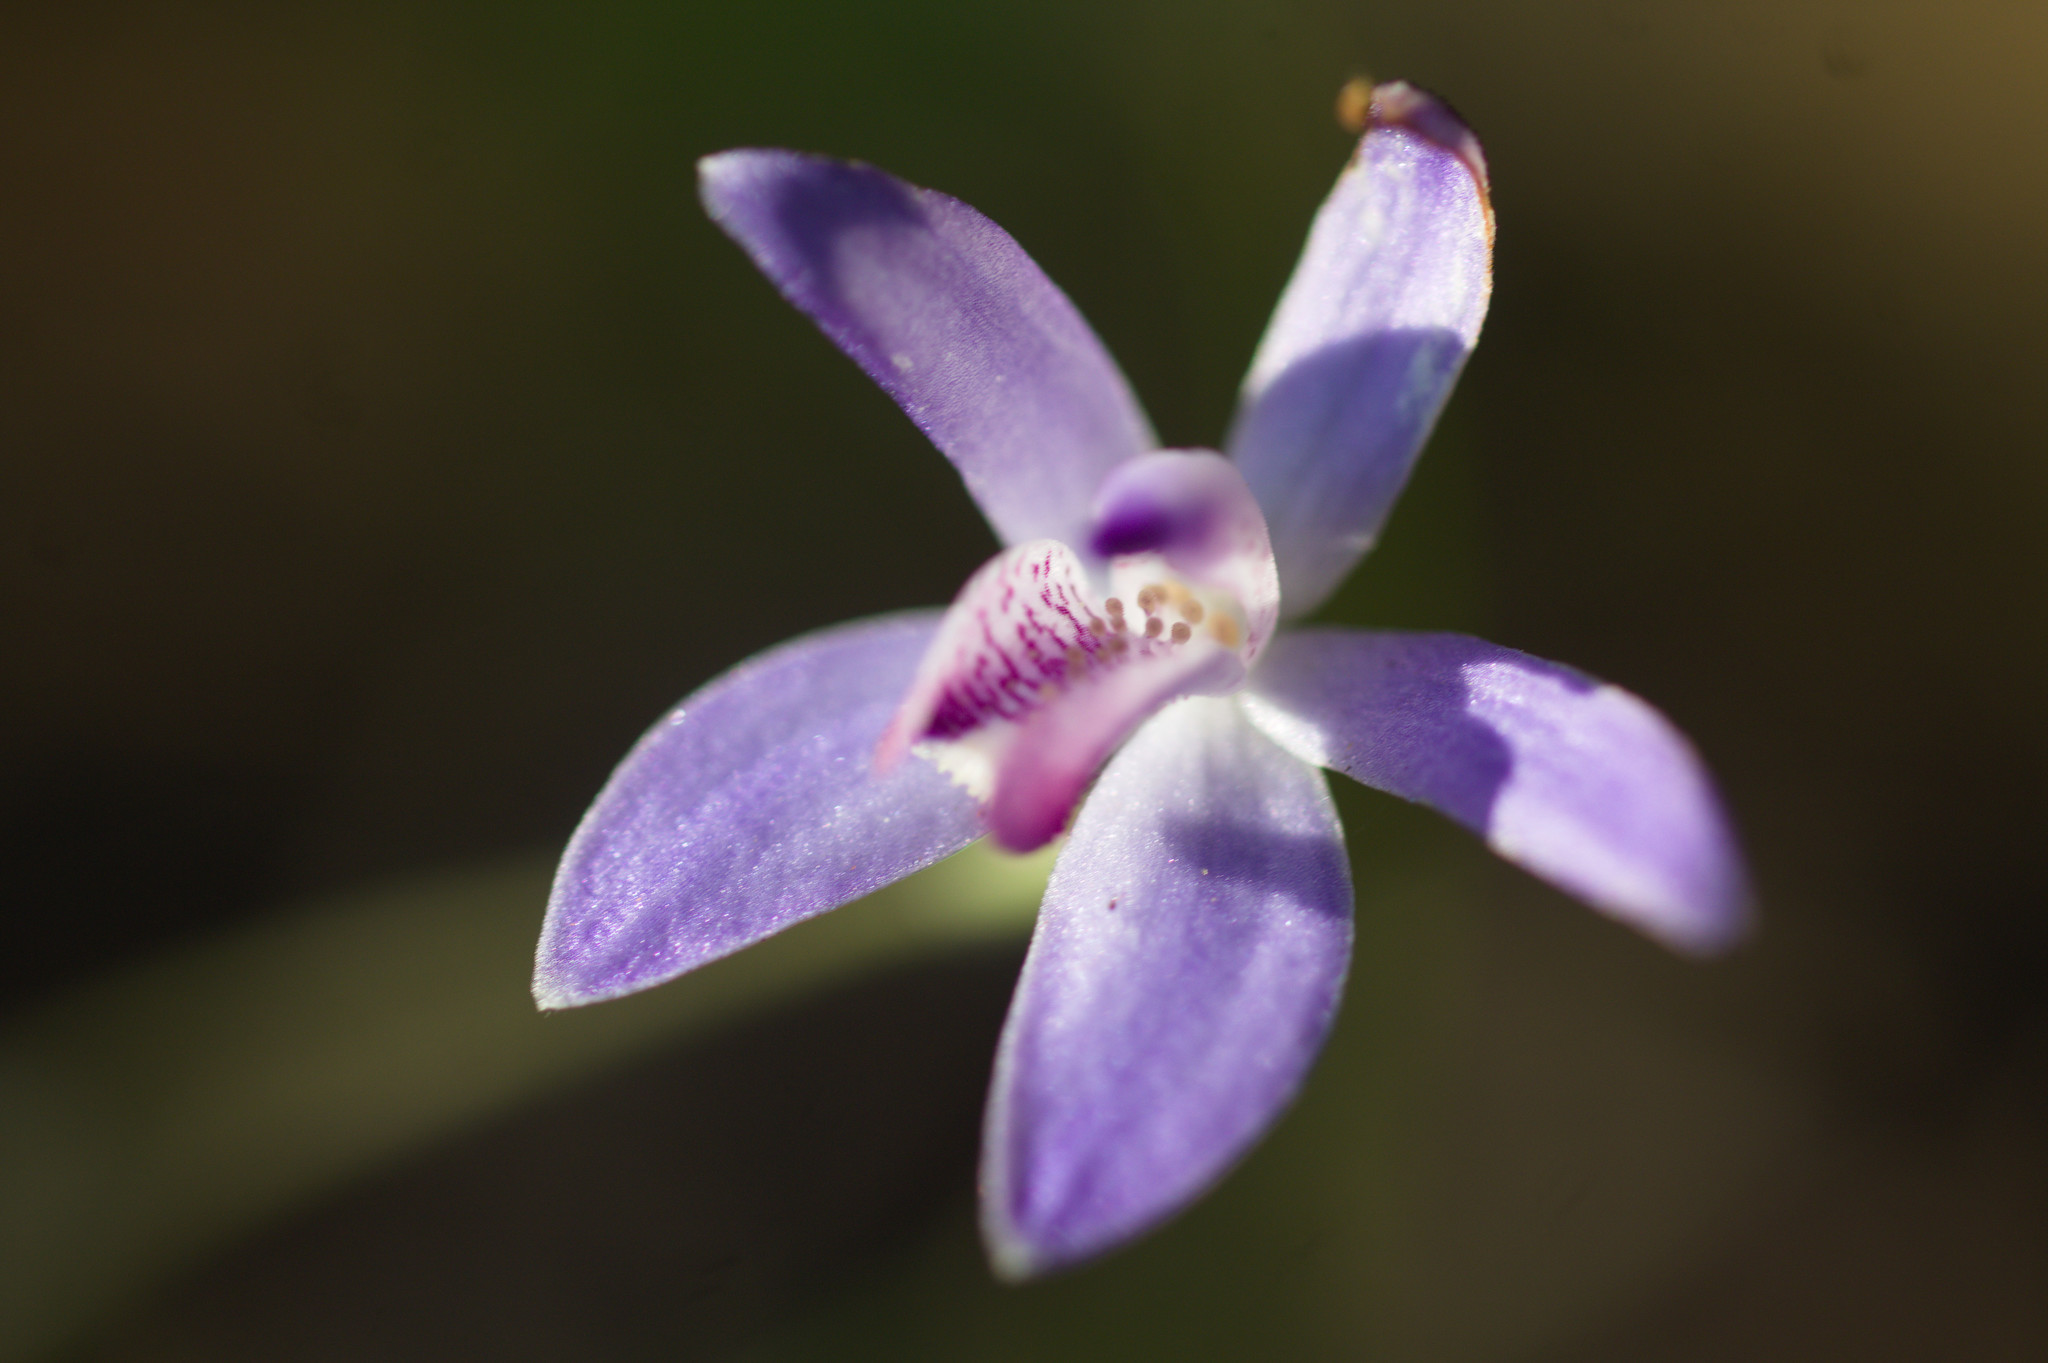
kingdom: Plantae
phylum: Tracheophyta
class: Liliopsida
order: Asparagales
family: Orchidaceae
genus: Caladenia
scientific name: Caladenia amplexans
